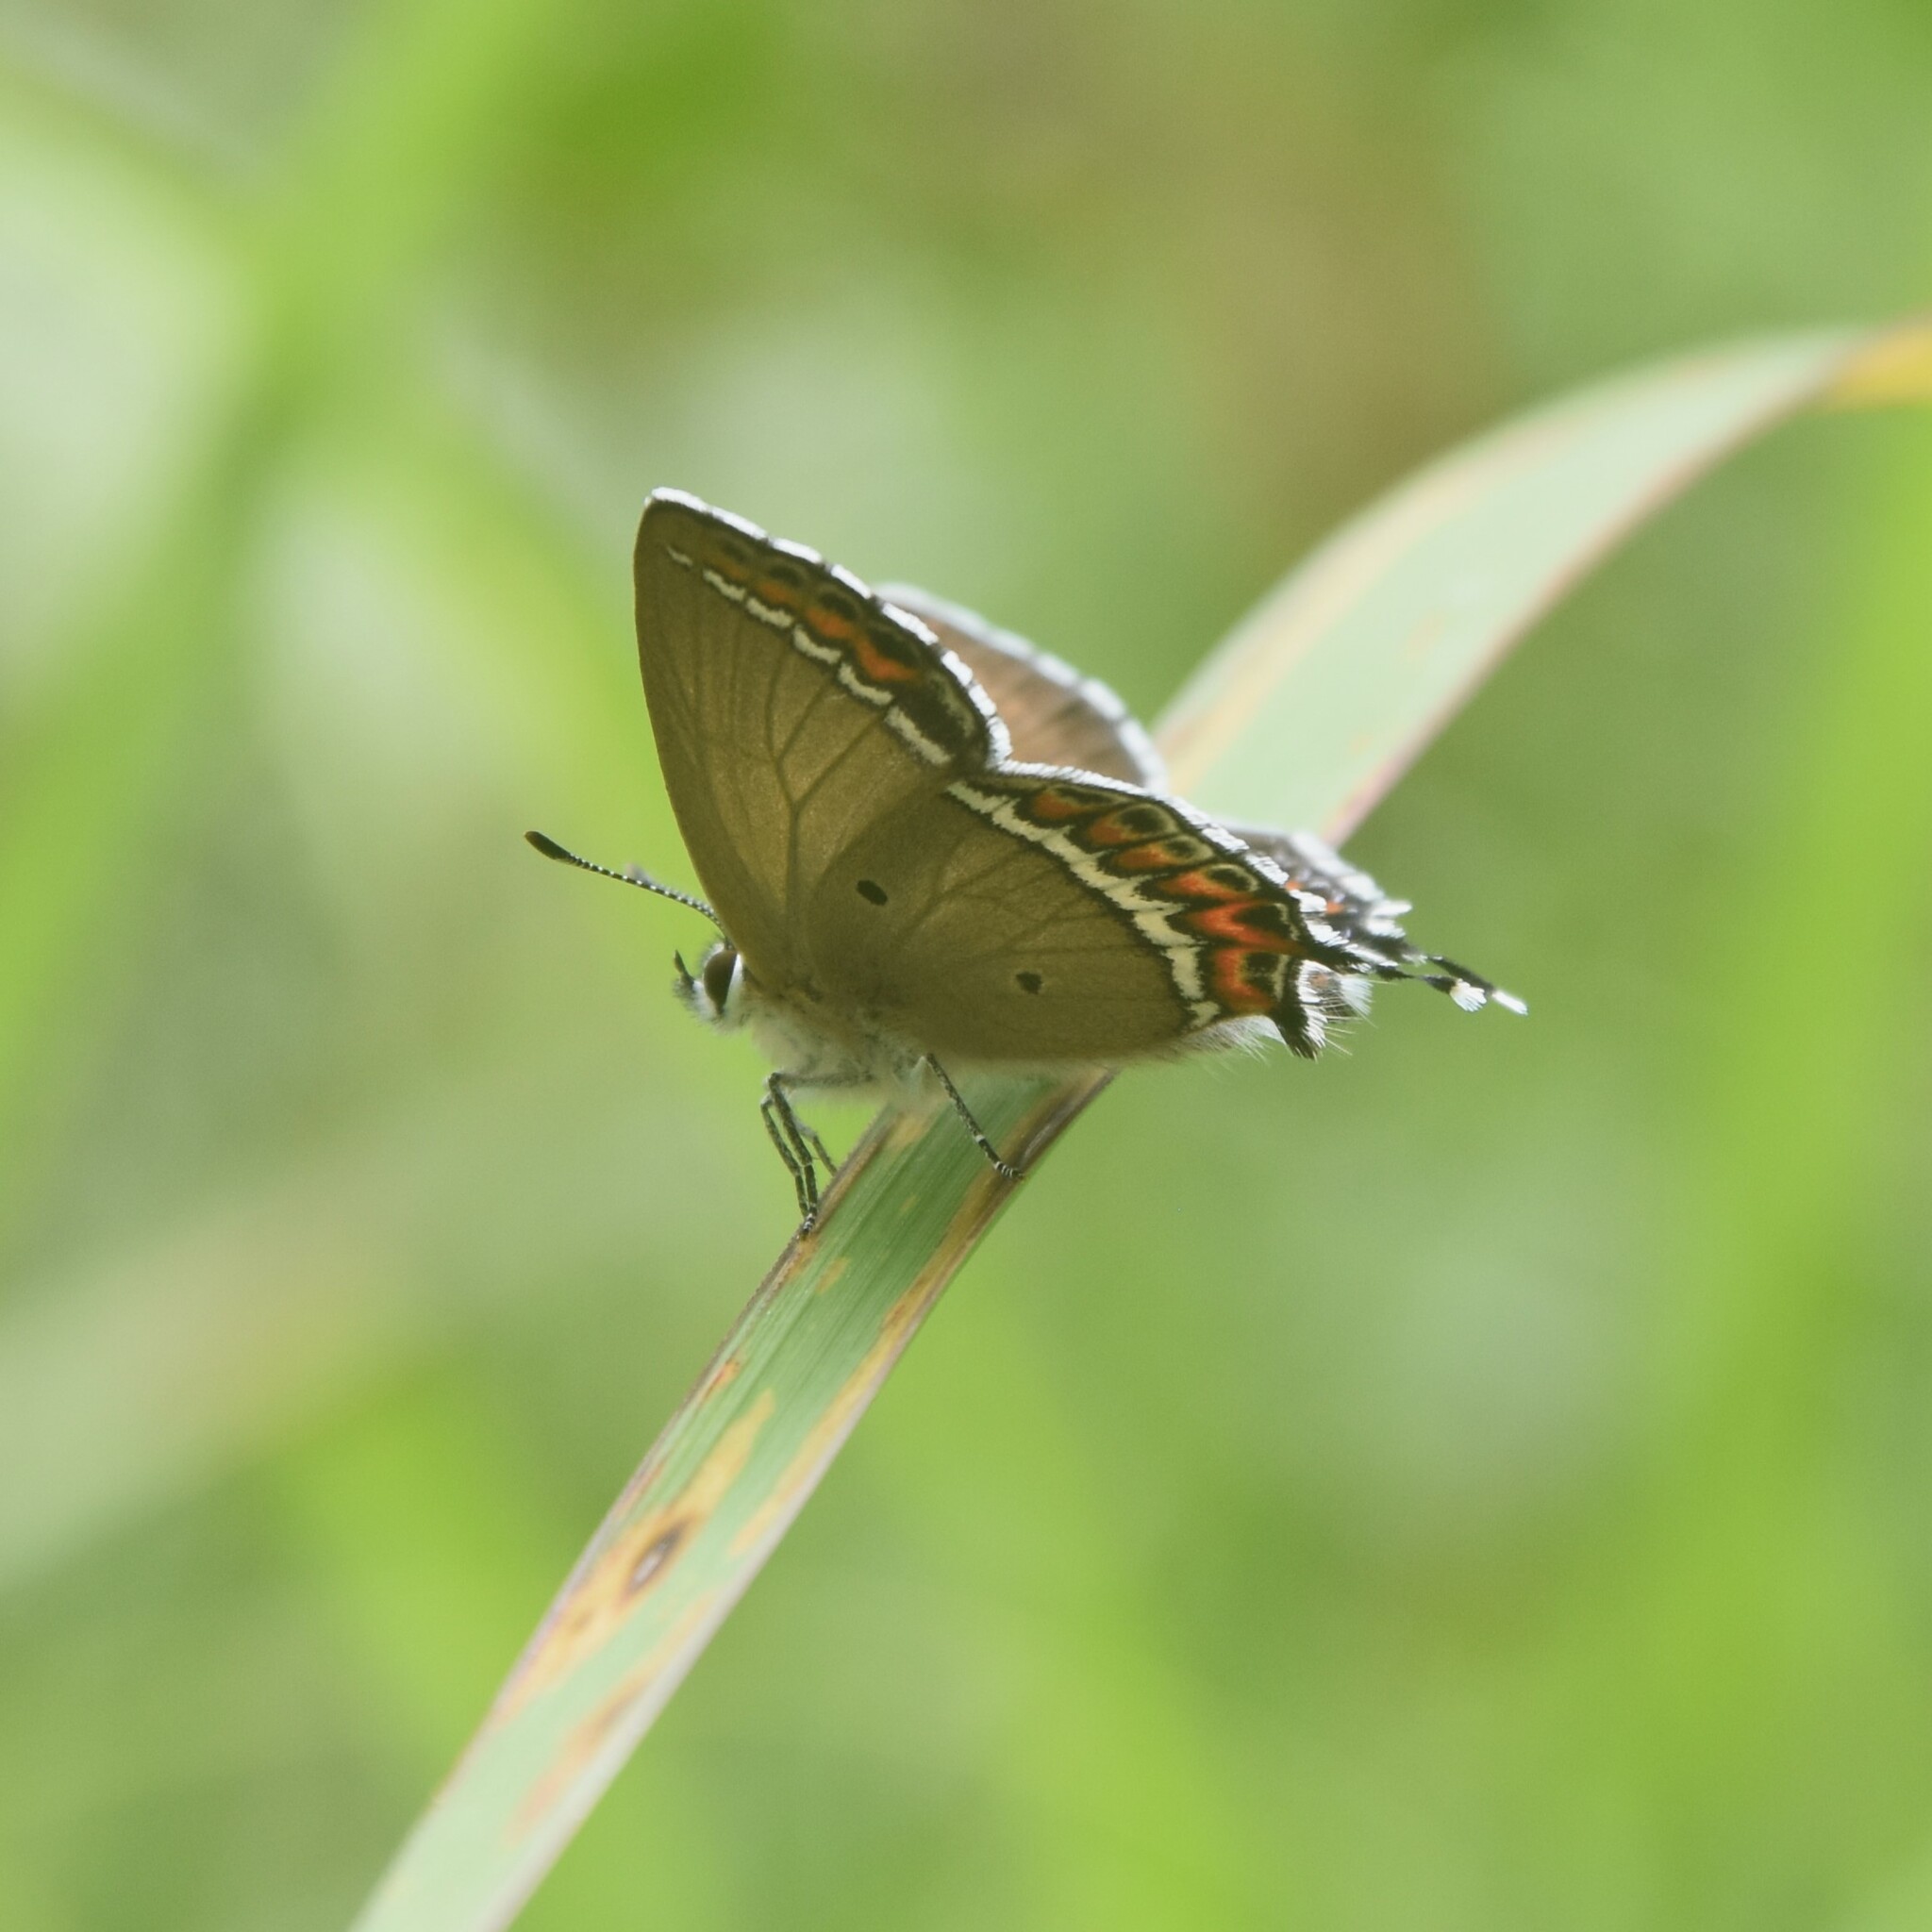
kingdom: Animalia
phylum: Arthropoda
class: Insecta
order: Lepidoptera
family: Lycaenidae
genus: Heliophorus
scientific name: Heliophorus sena
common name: Sorrel sapphire
